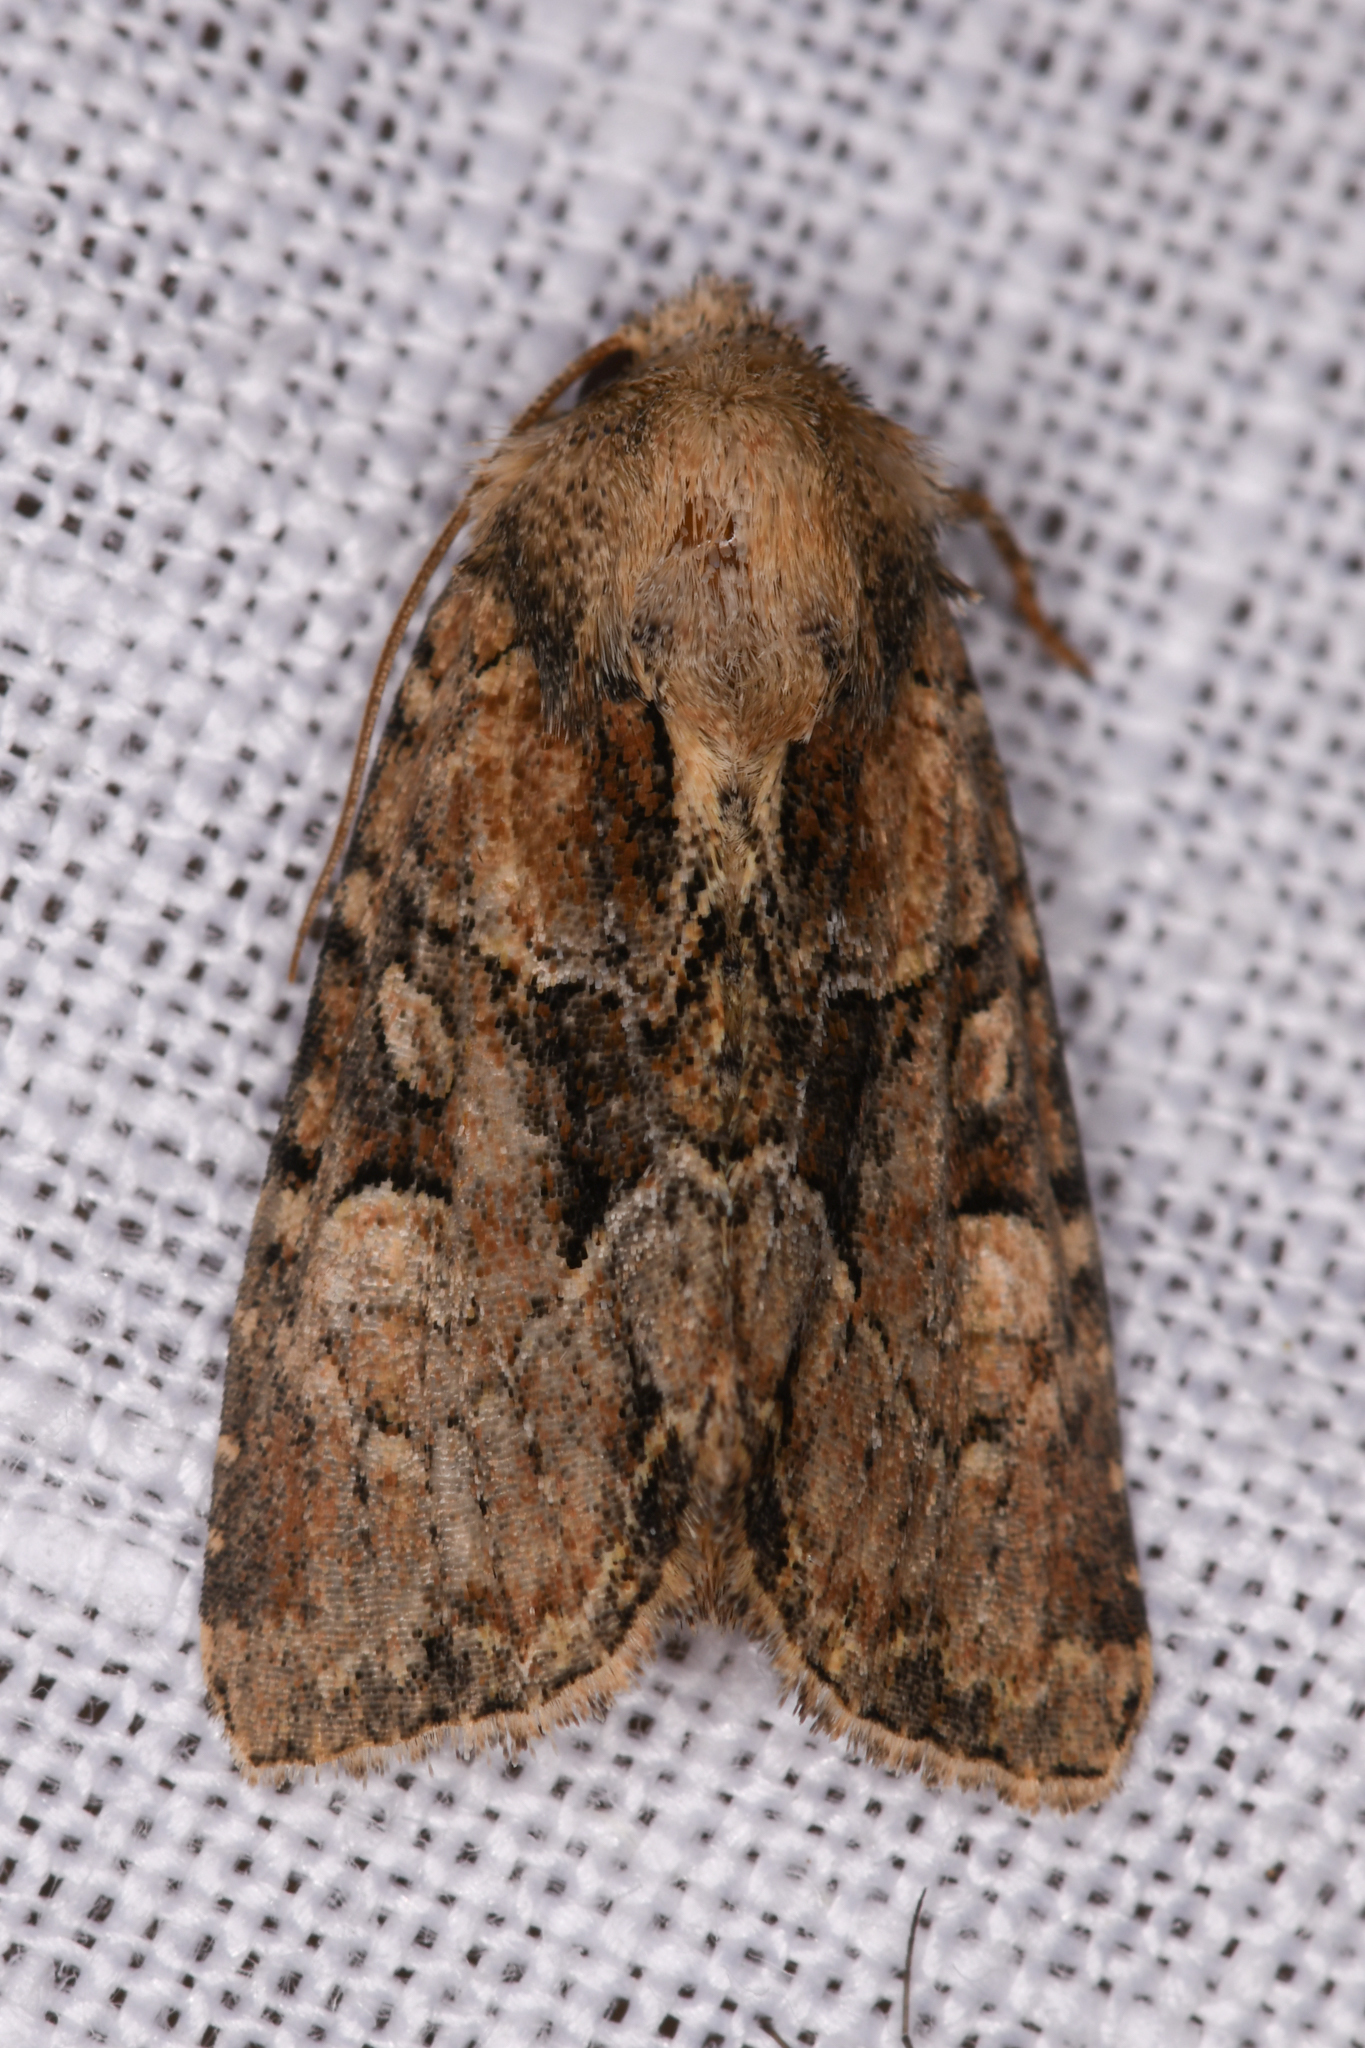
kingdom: Animalia
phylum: Arthropoda
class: Insecta
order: Lepidoptera
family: Noctuidae
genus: Xylomoia
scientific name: Xylomoia indirecta
